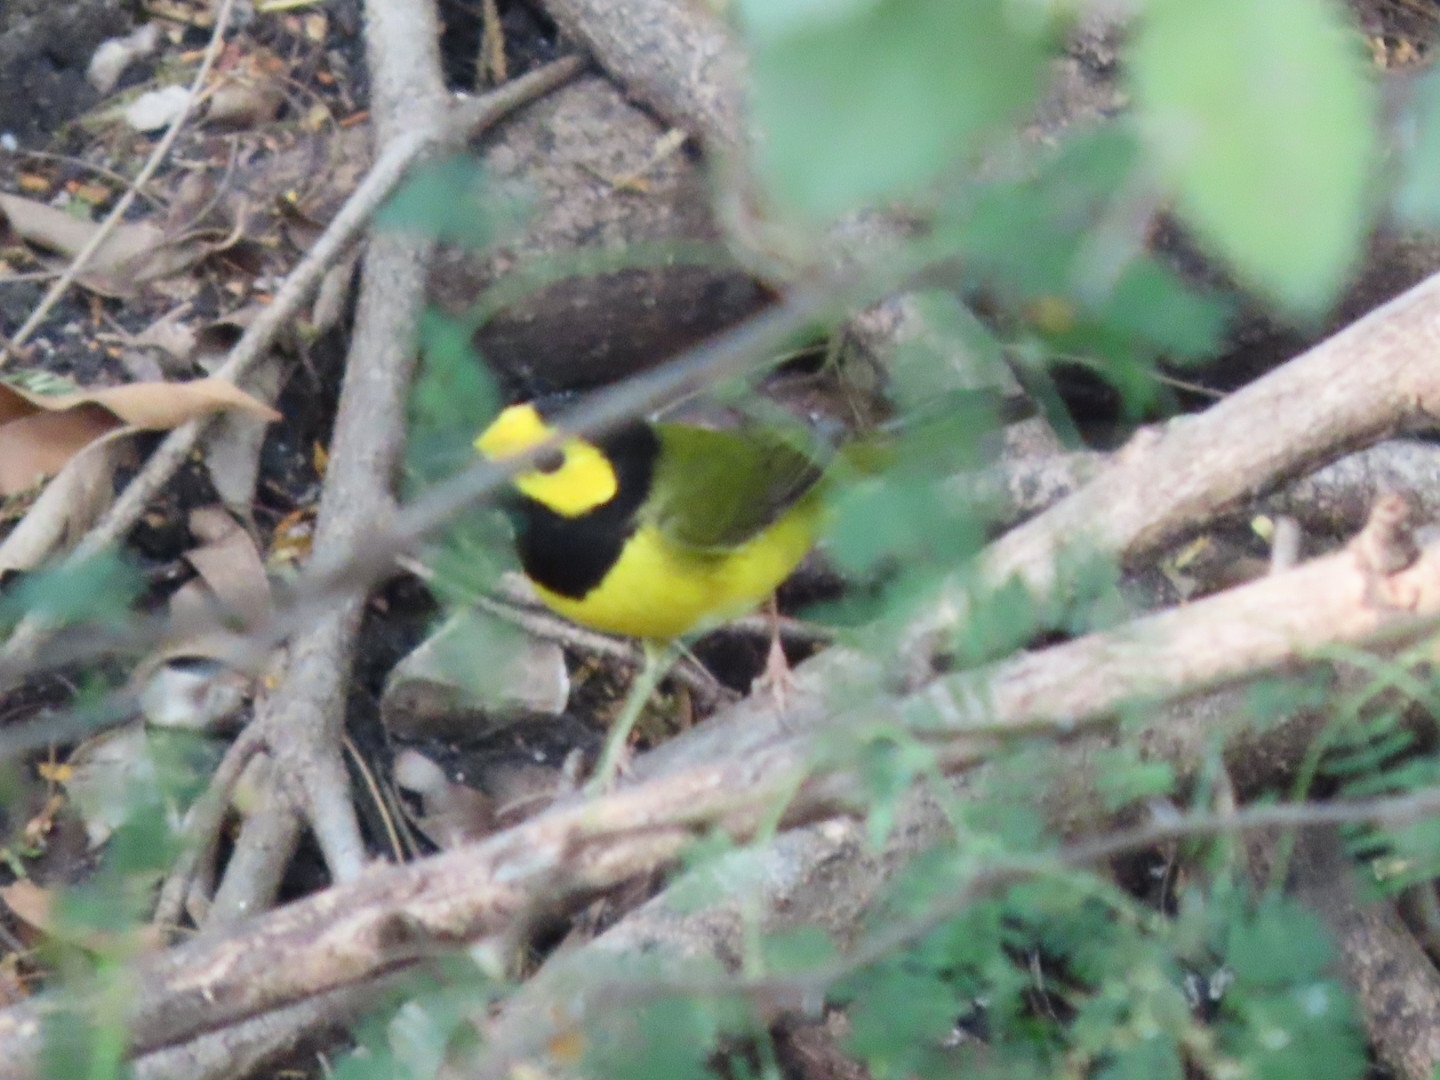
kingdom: Animalia
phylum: Chordata
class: Aves
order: Passeriformes
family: Parulidae
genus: Setophaga
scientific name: Setophaga citrina
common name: Hooded warbler
